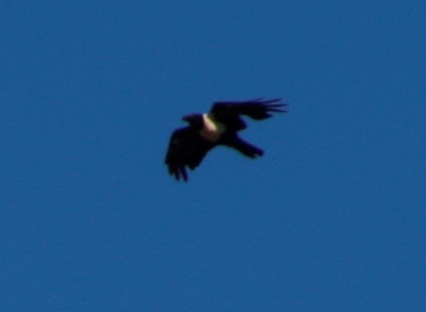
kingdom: Animalia
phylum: Chordata
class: Aves
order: Passeriformes
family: Corvidae
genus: Corvus
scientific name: Corvus albus
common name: Pied crow
